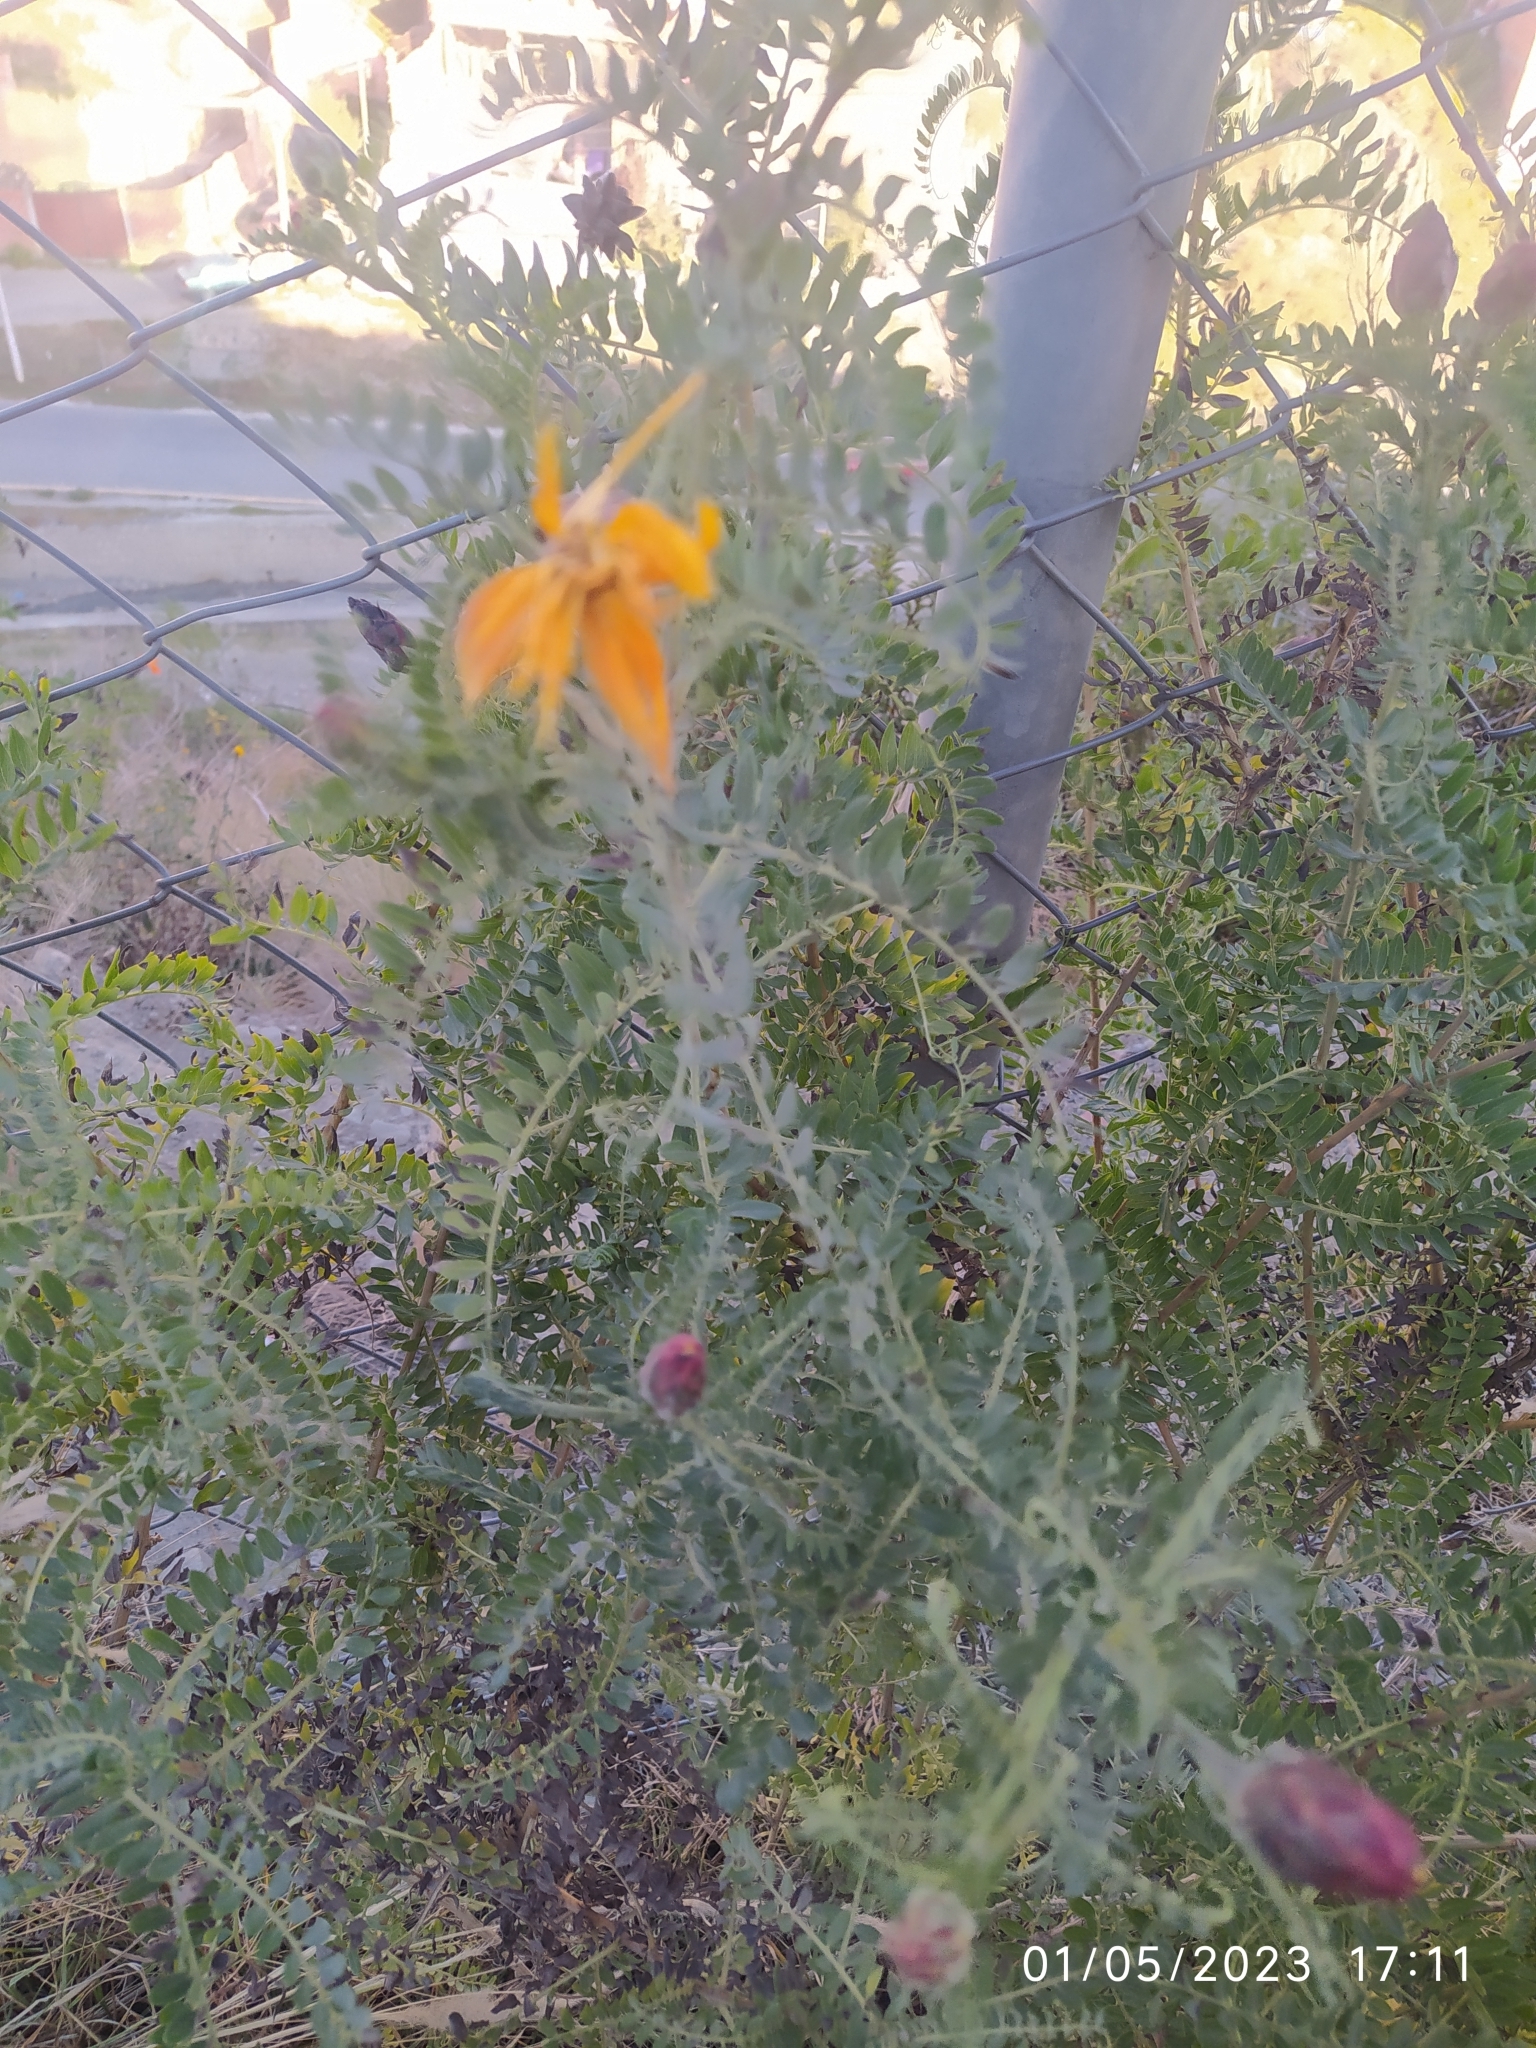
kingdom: Plantae
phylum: Tracheophyta
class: Magnoliopsida
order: Asterales
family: Asteraceae
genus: Mutisia
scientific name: Mutisia acuminata
